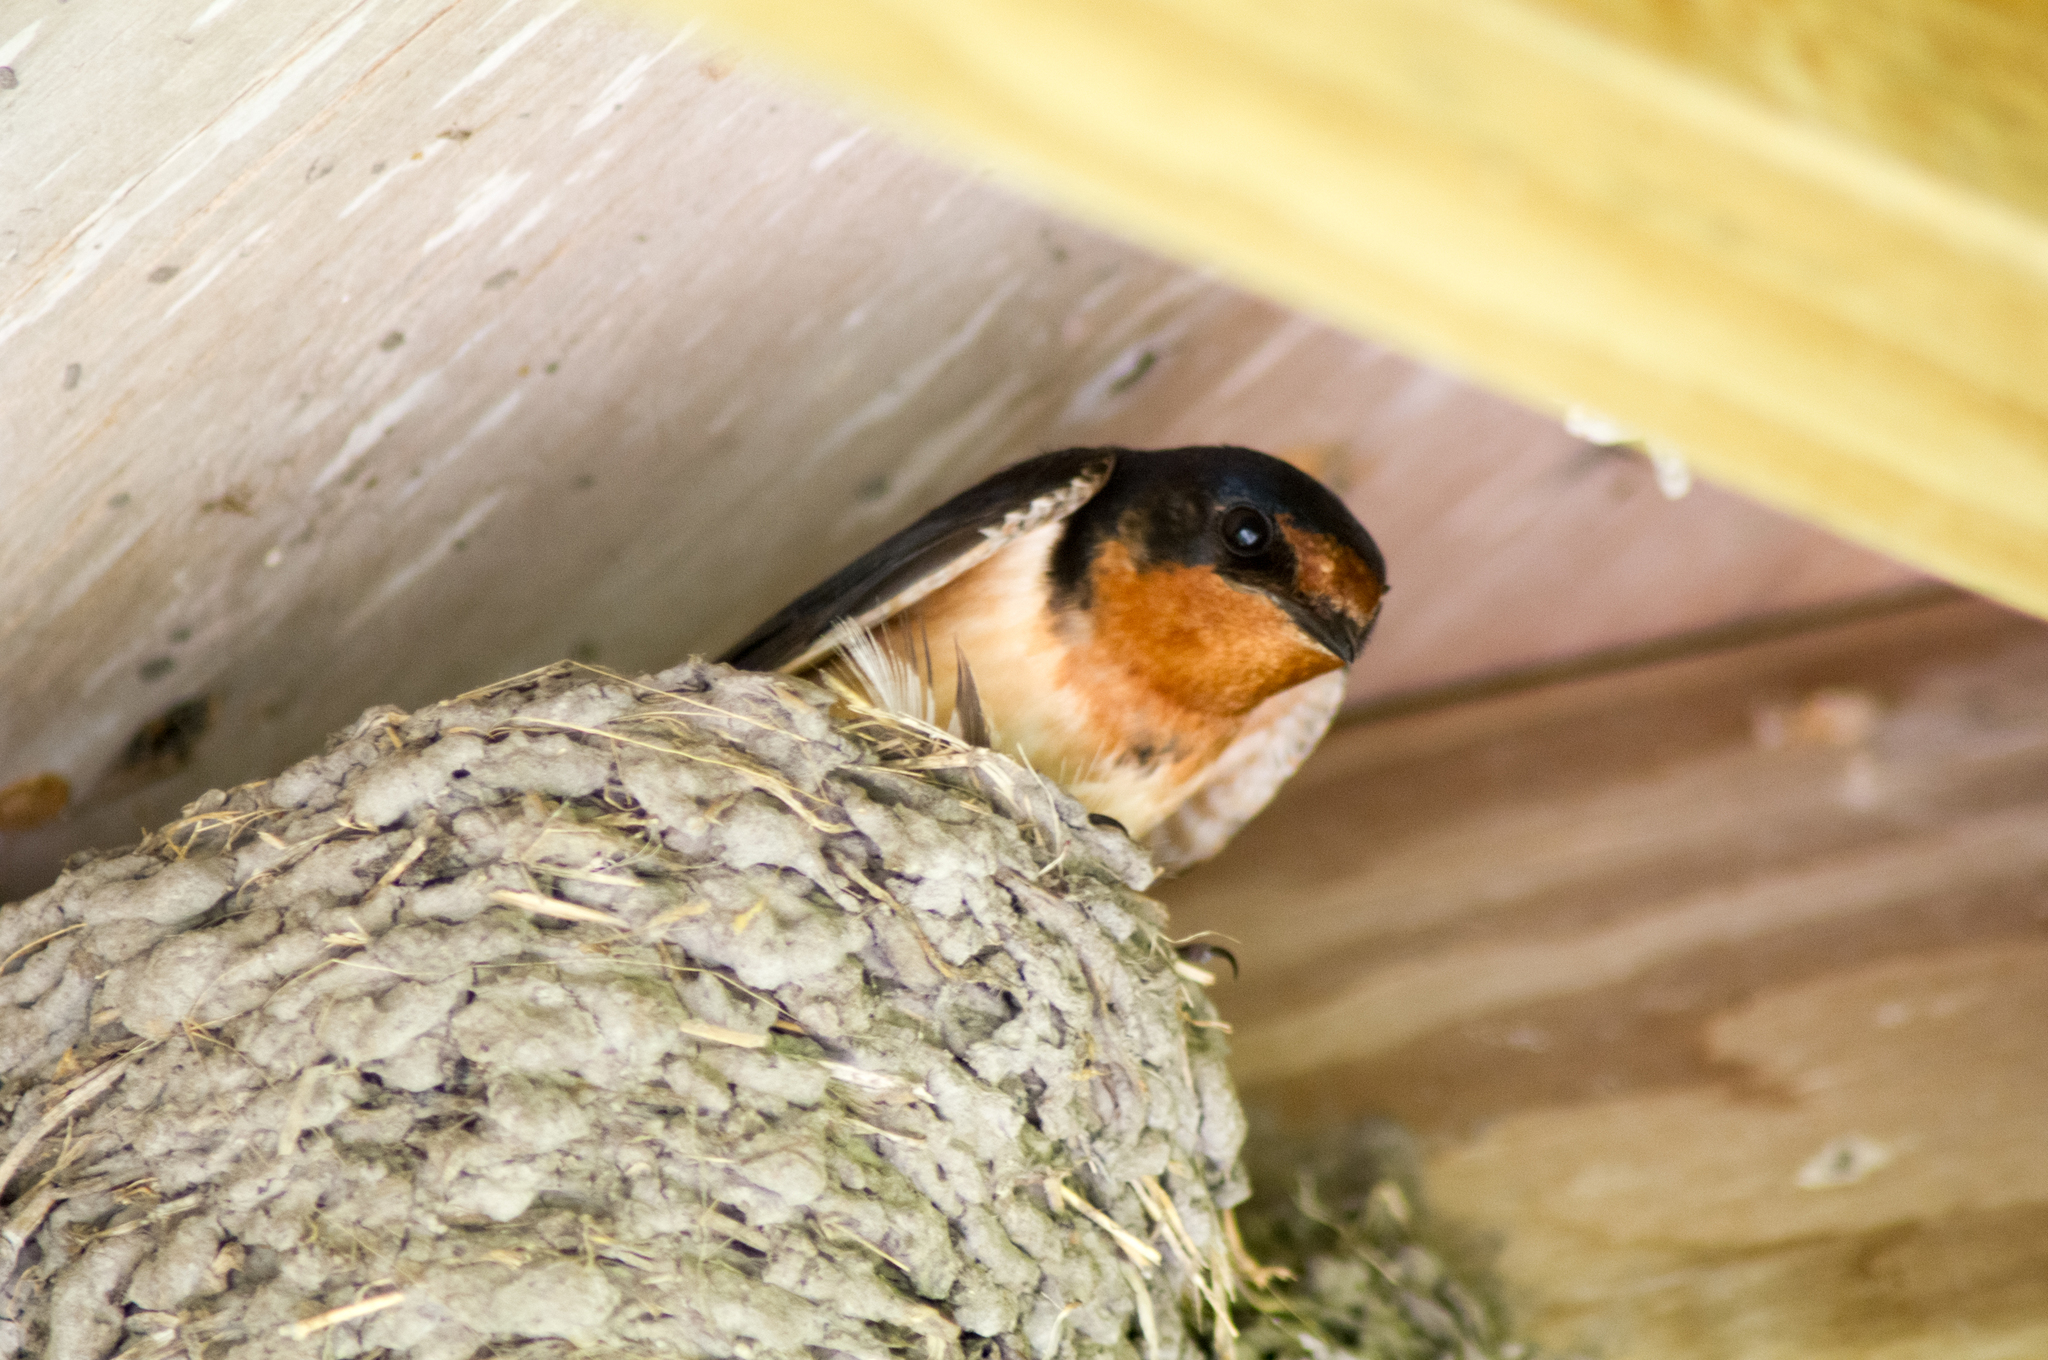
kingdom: Animalia
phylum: Chordata
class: Aves
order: Passeriformes
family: Hirundinidae
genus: Hirundo
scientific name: Hirundo rustica
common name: Barn swallow
